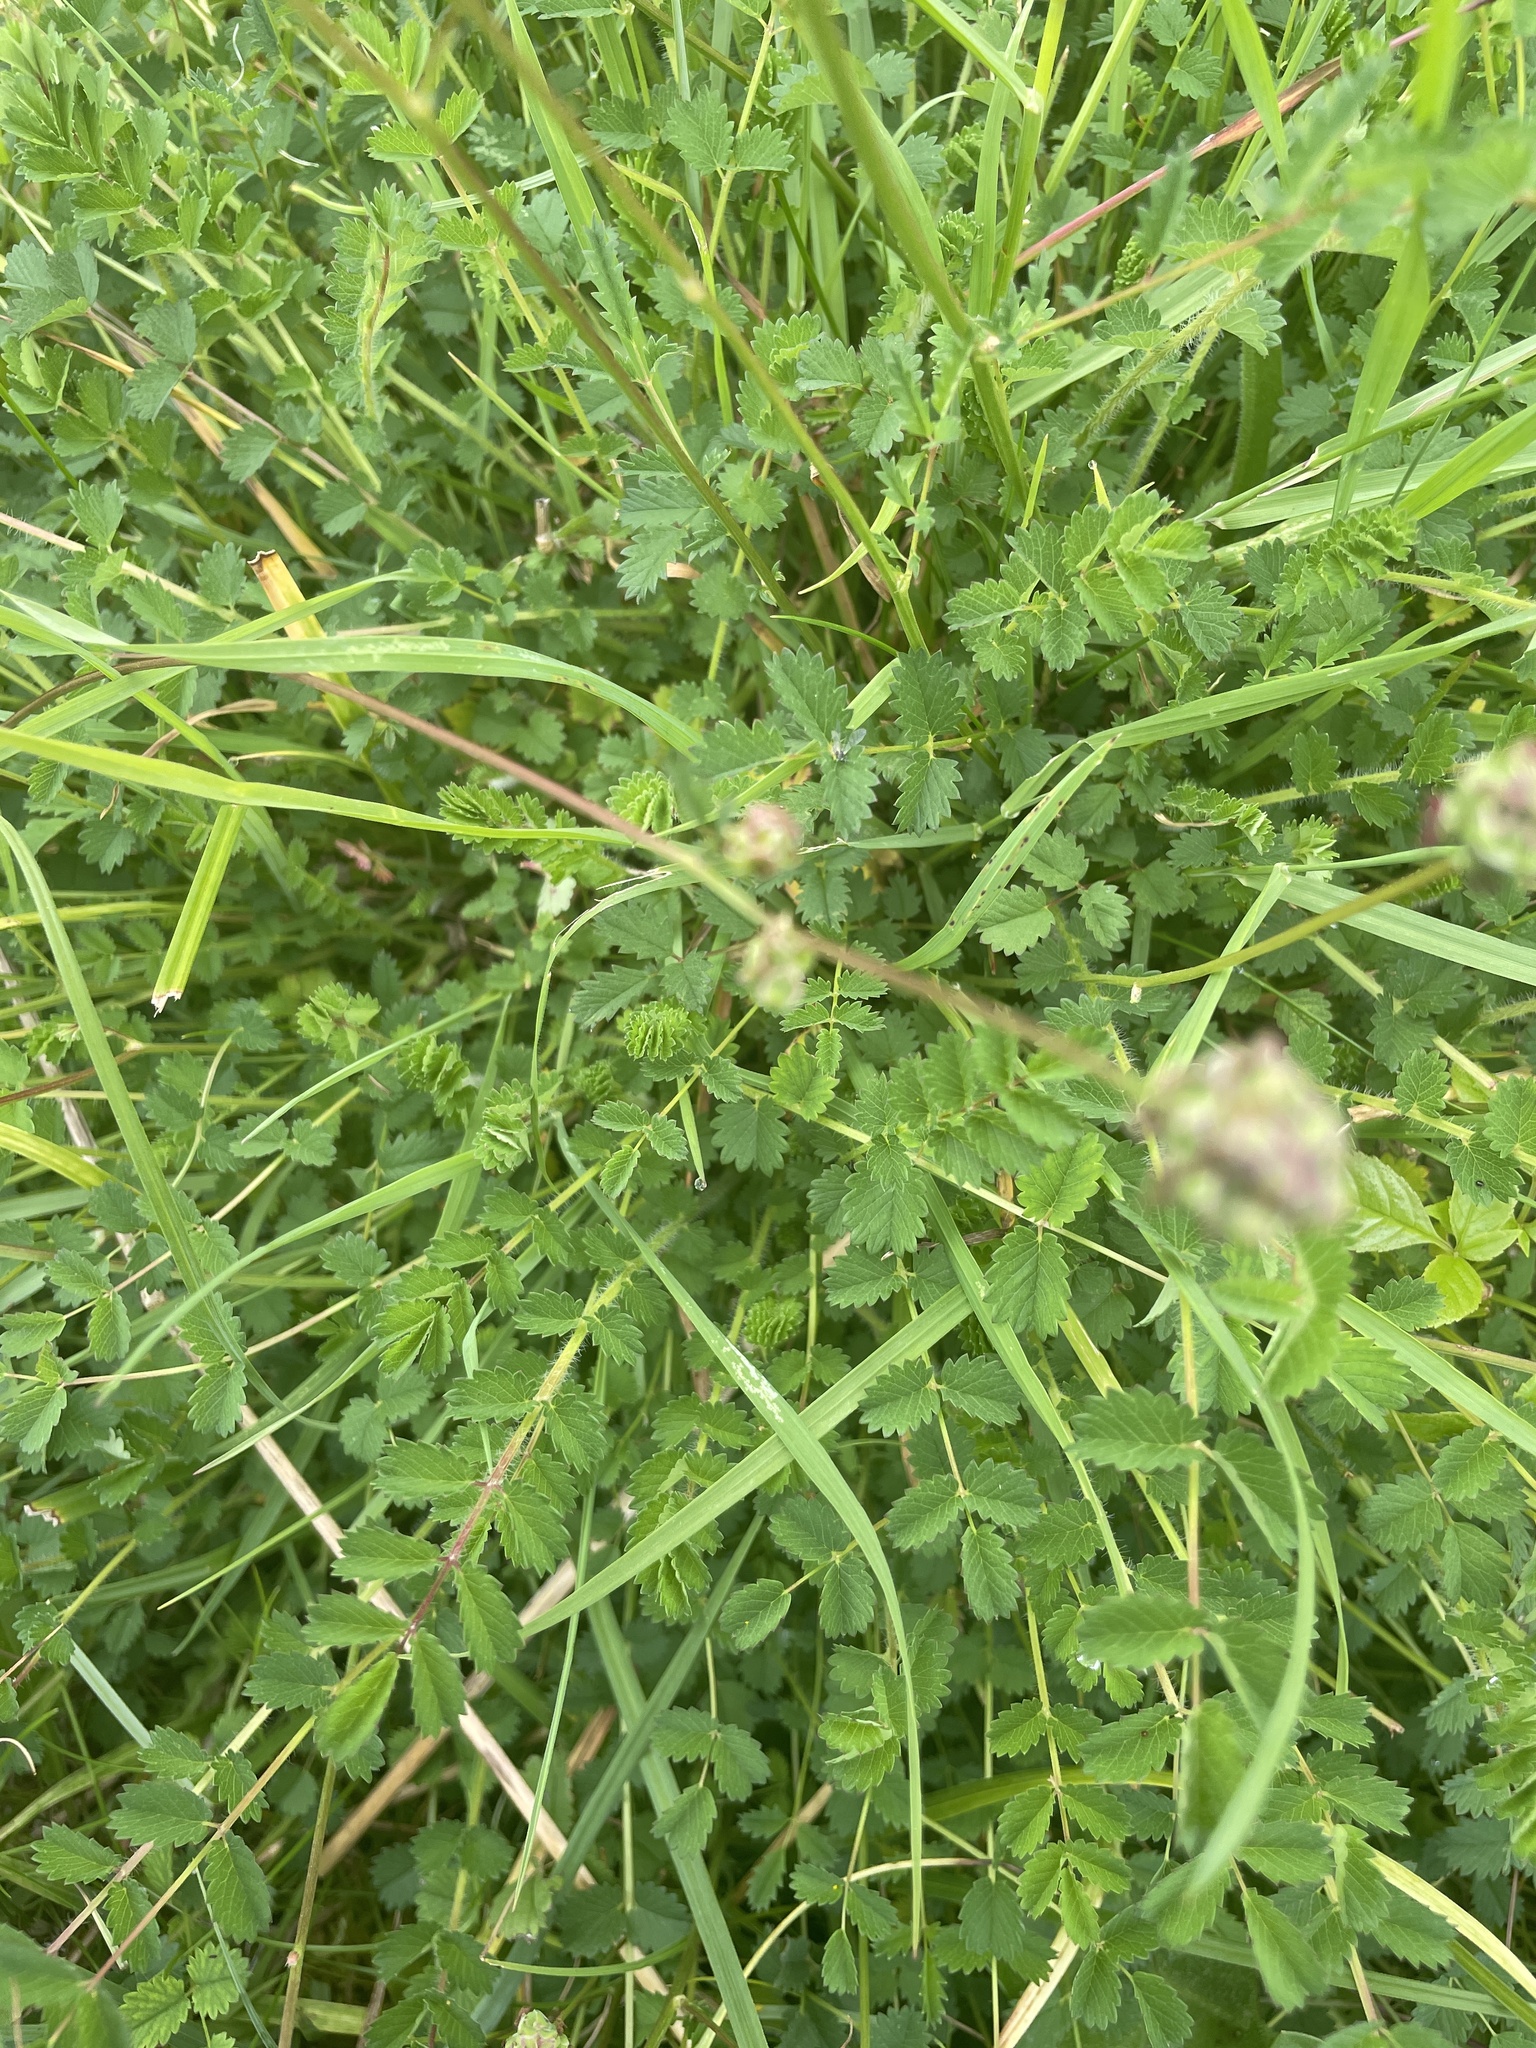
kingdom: Plantae
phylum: Tracheophyta
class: Magnoliopsida
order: Rosales
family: Rosaceae
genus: Poterium
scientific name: Poterium sanguisorba
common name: Salad burnet
